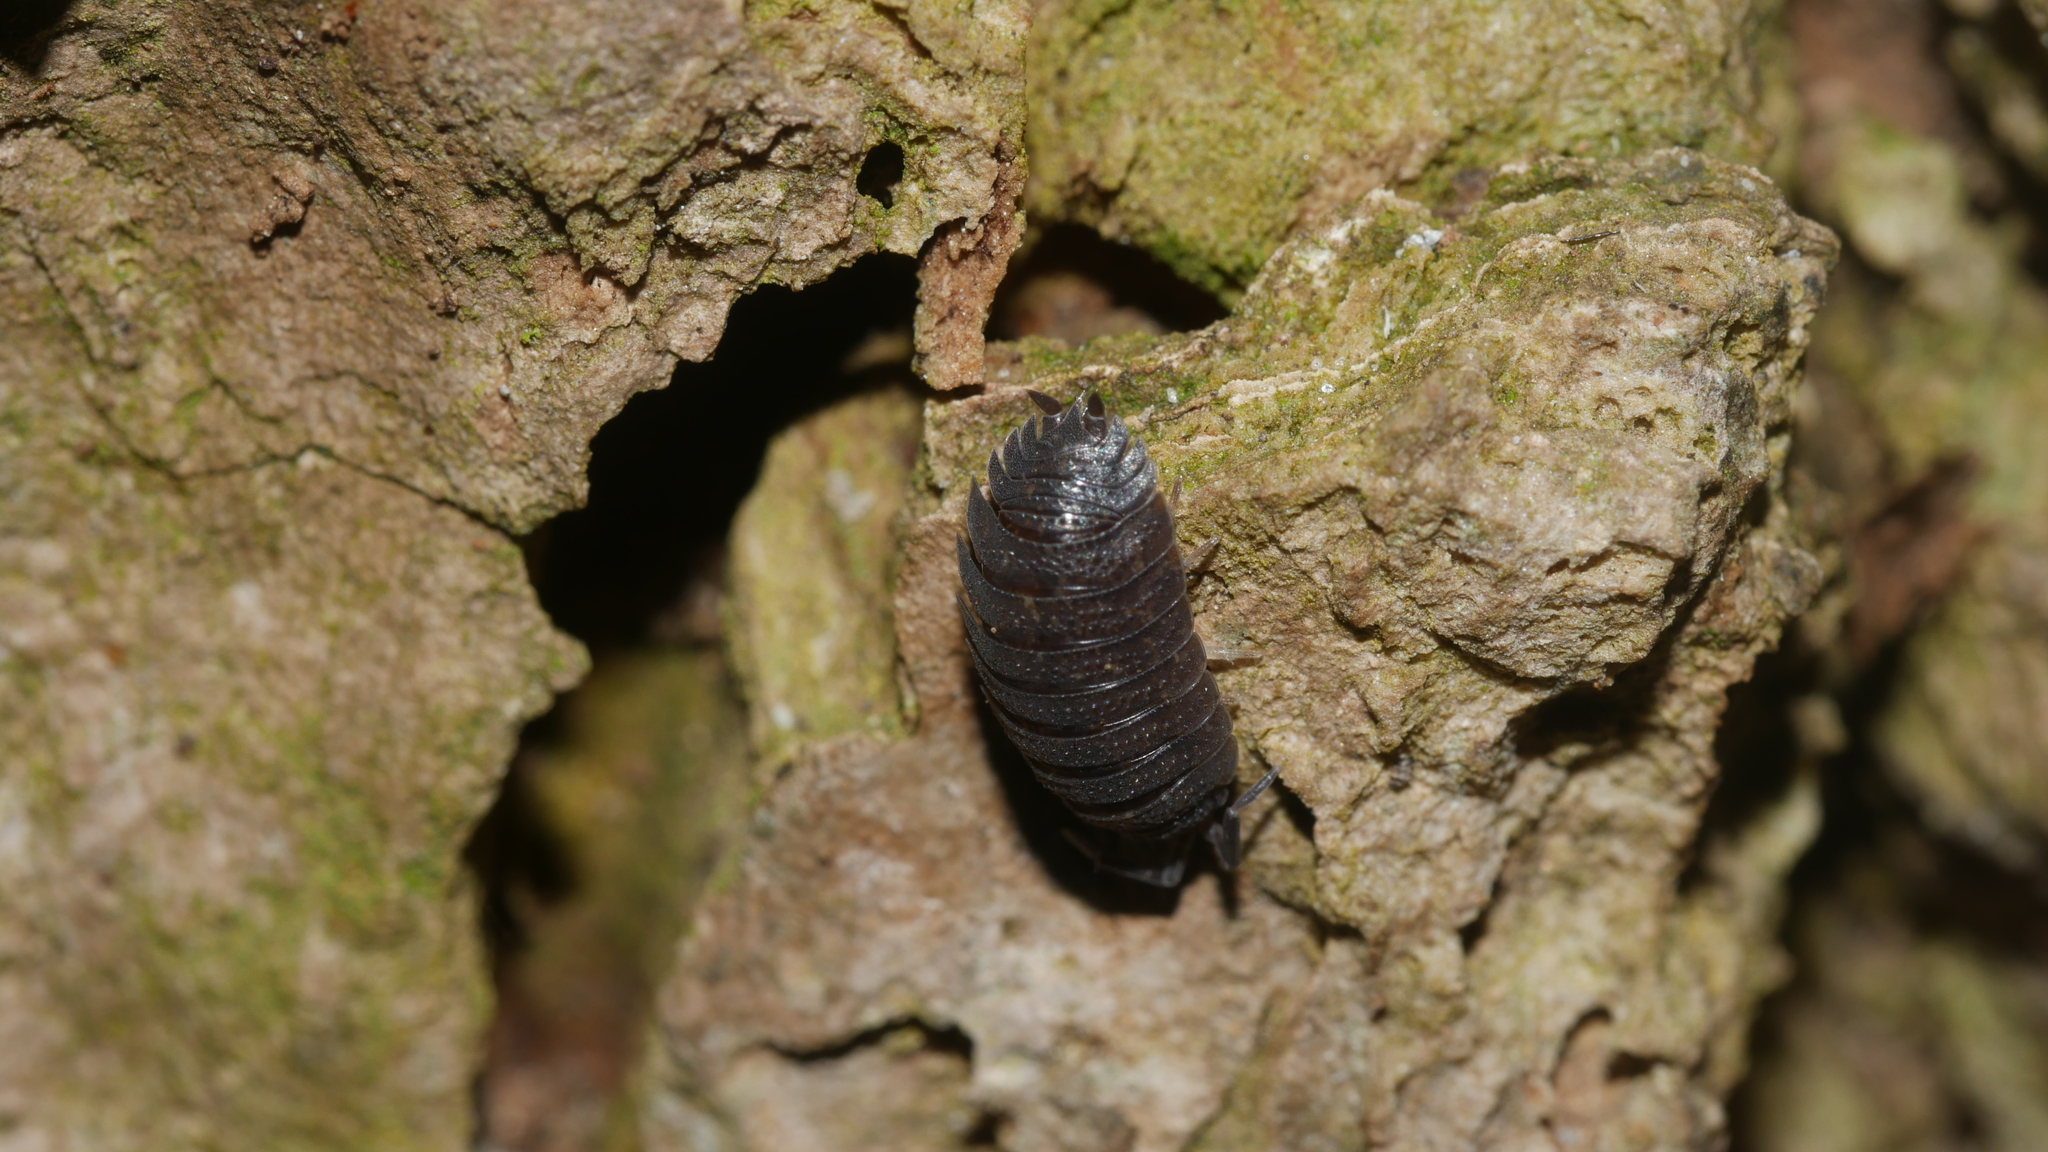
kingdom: Animalia
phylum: Arthropoda
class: Malacostraca
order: Isopoda
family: Porcellionidae
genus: Porcellio
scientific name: Porcellio scaber
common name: Common rough woodlouse
